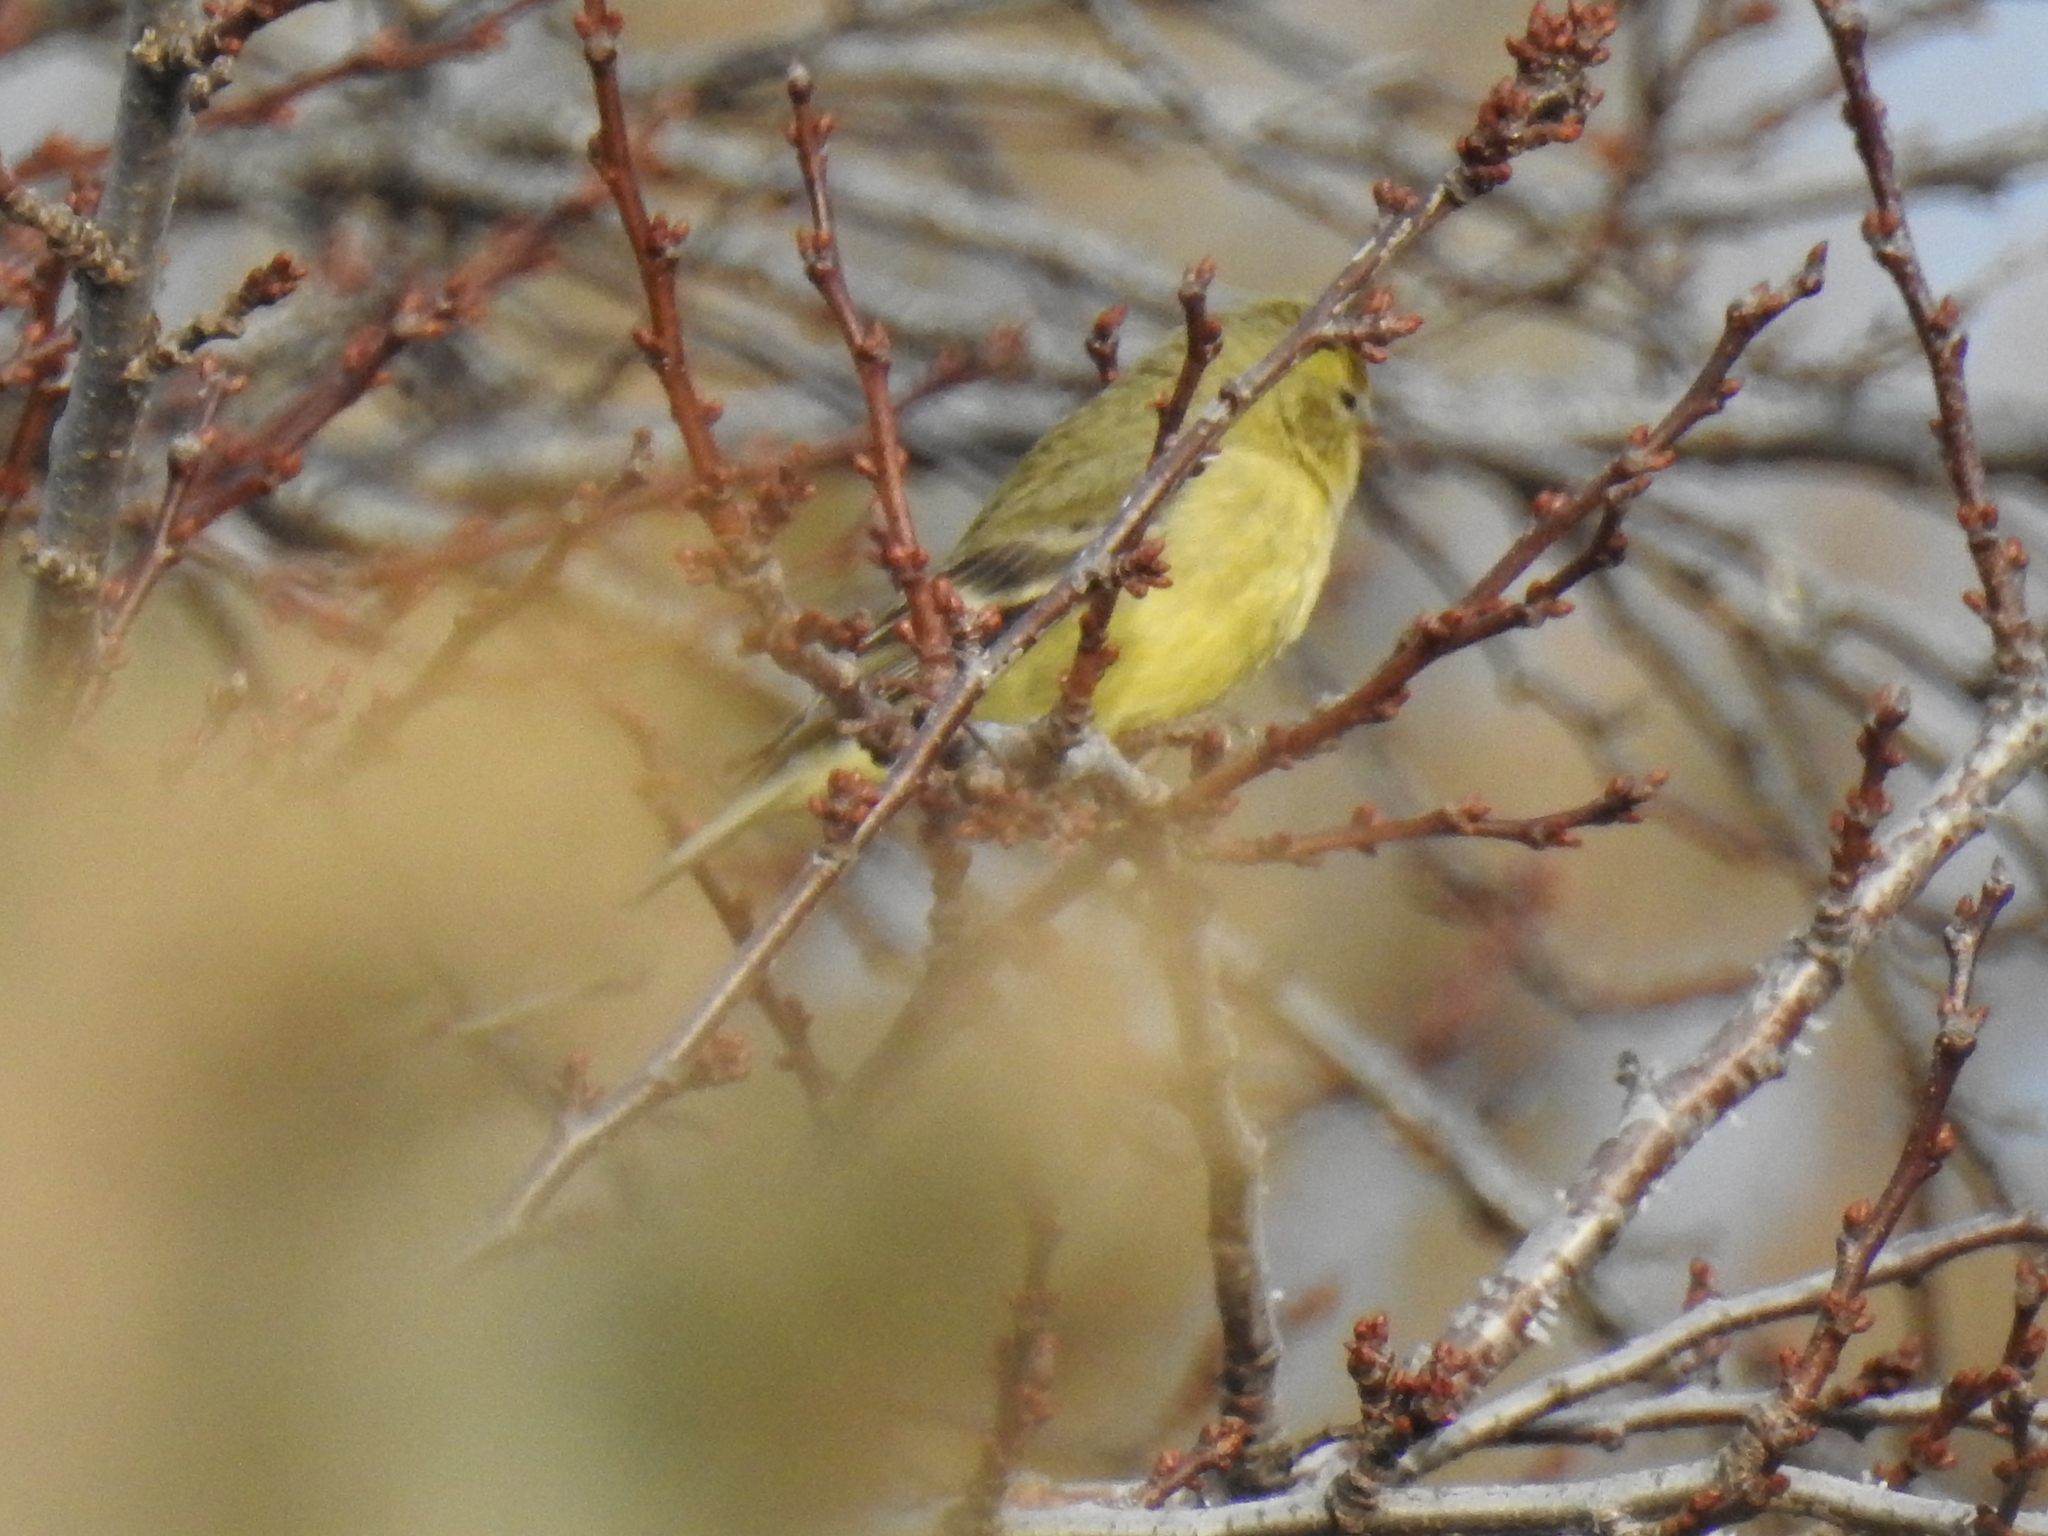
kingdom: Animalia
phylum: Chordata
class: Aves
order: Passeriformes
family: Fringillidae
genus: Spinus
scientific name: Spinus psaltria
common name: Lesser goldfinch
